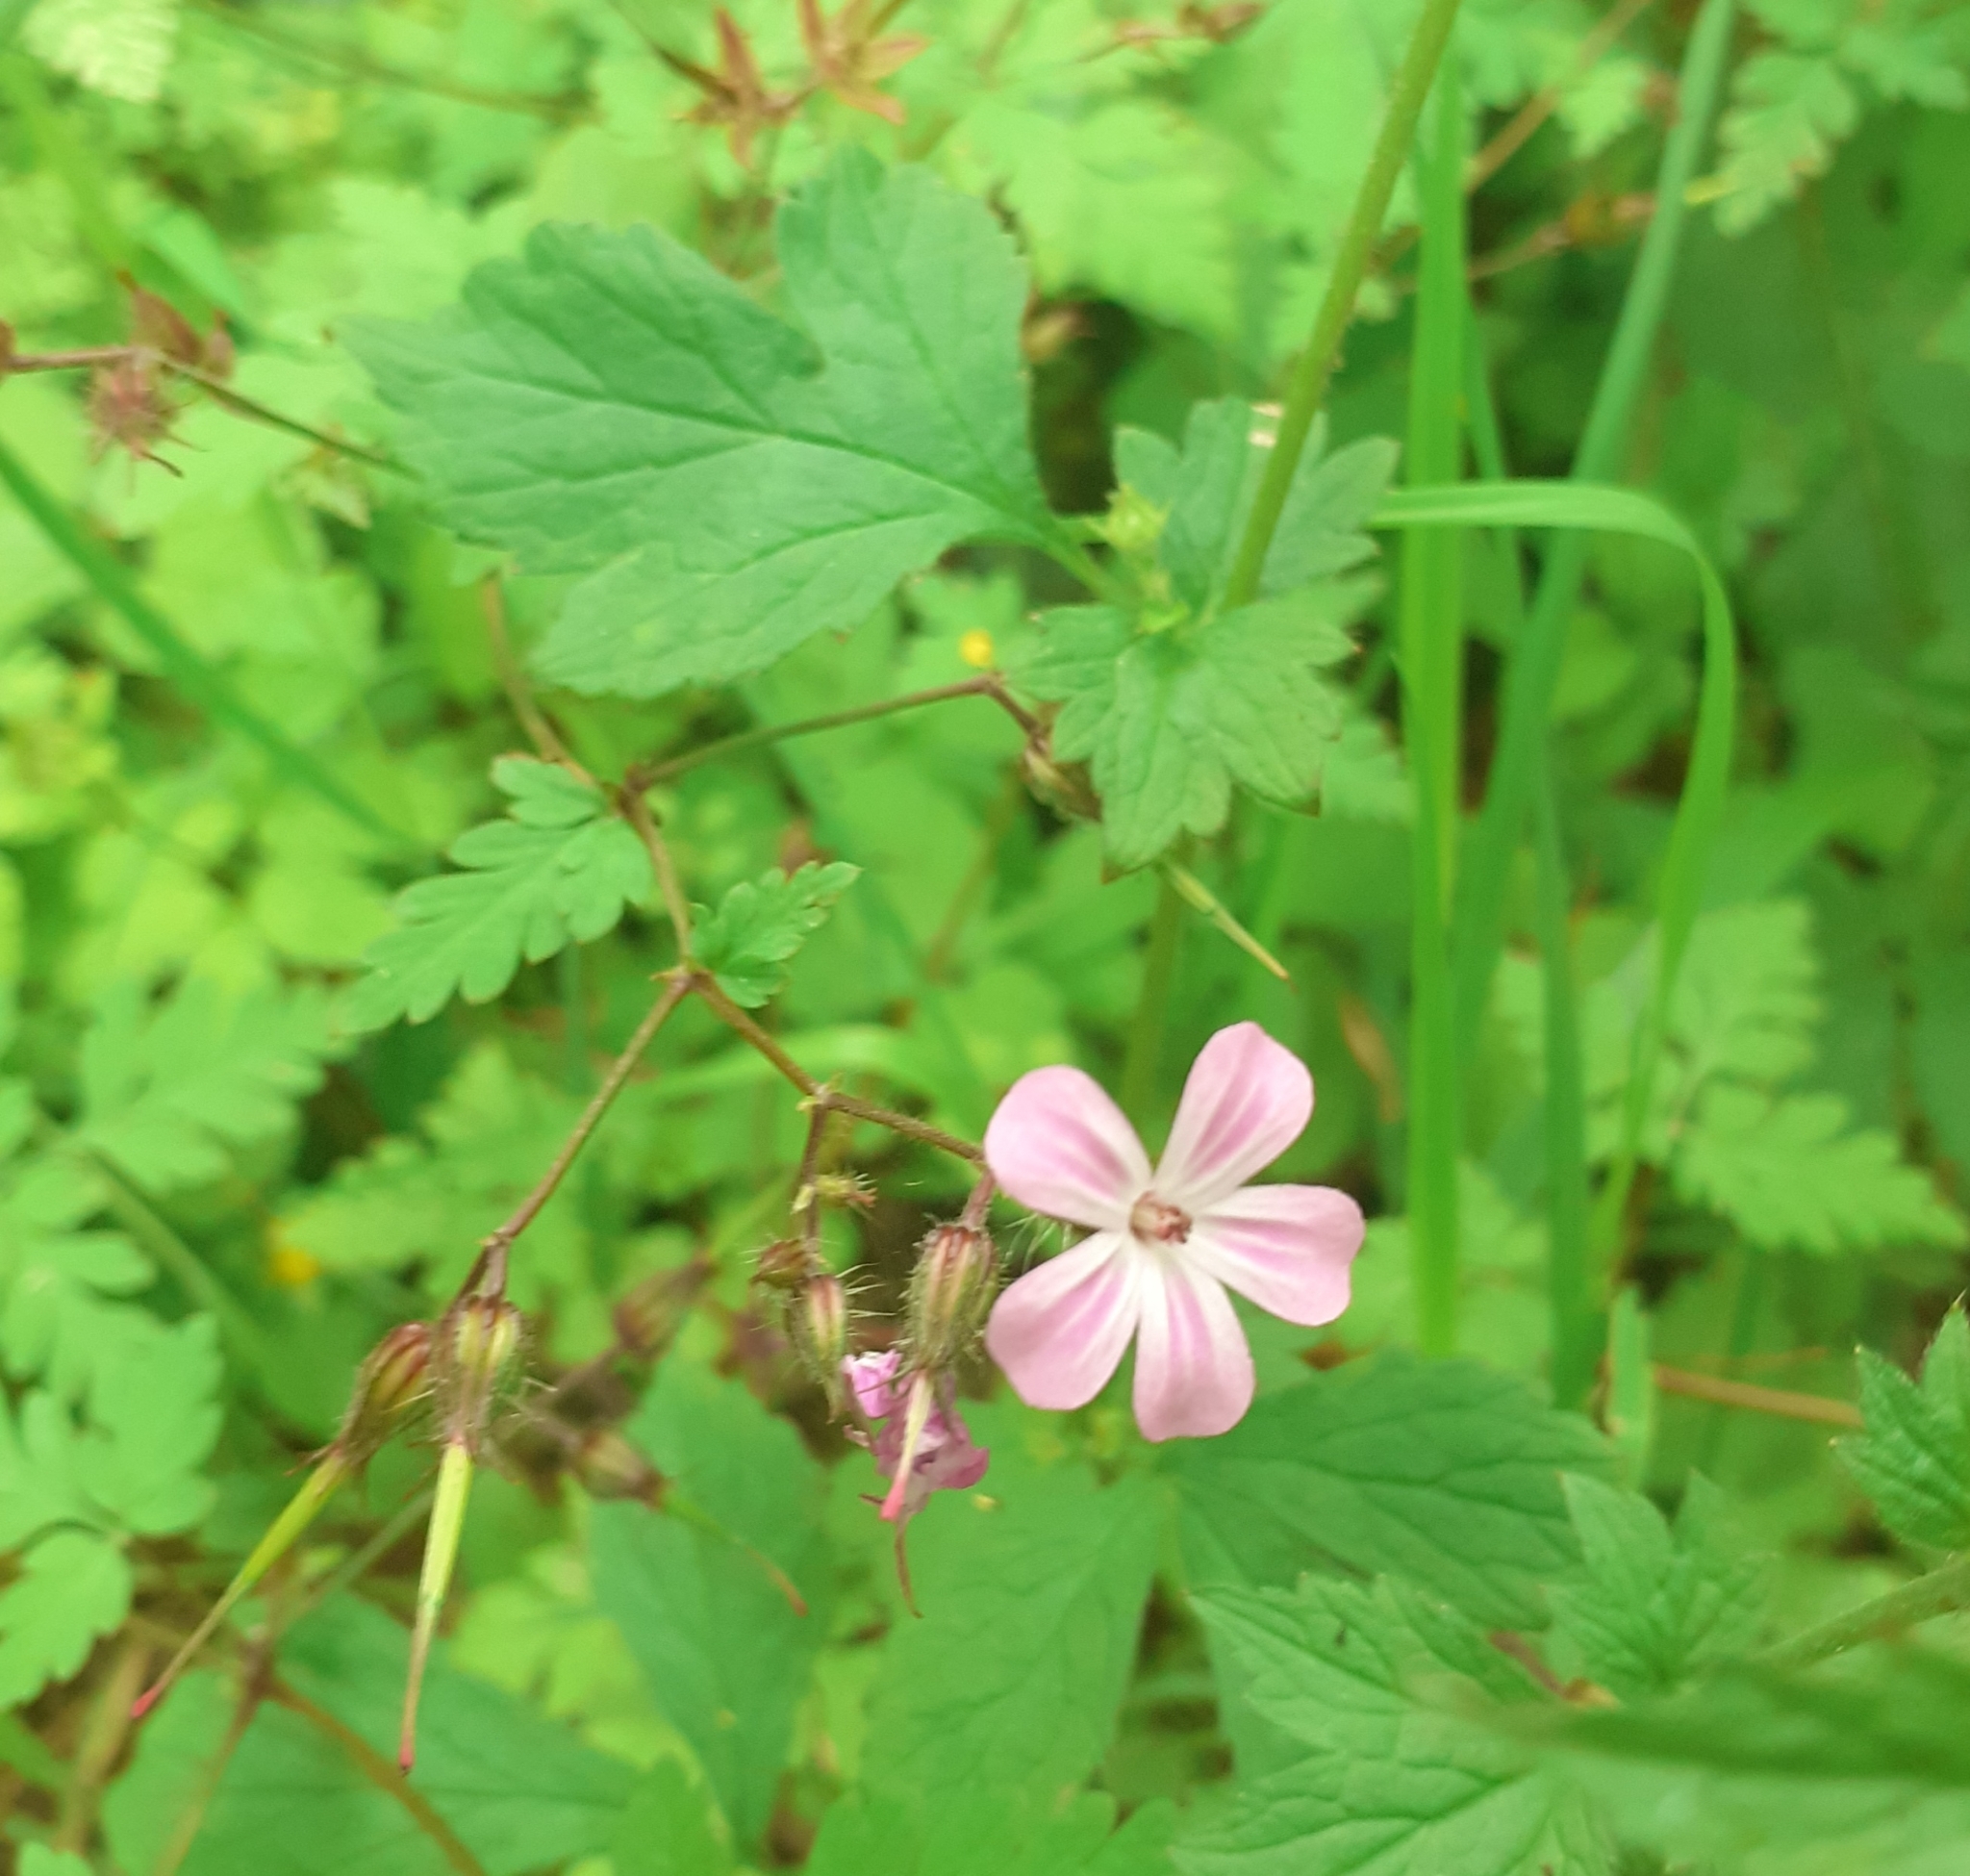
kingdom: Plantae
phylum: Tracheophyta
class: Magnoliopsida
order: Geraniales
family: Geraniaceae
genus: Geranium
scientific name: Geranium robertianum
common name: Herb-robert
